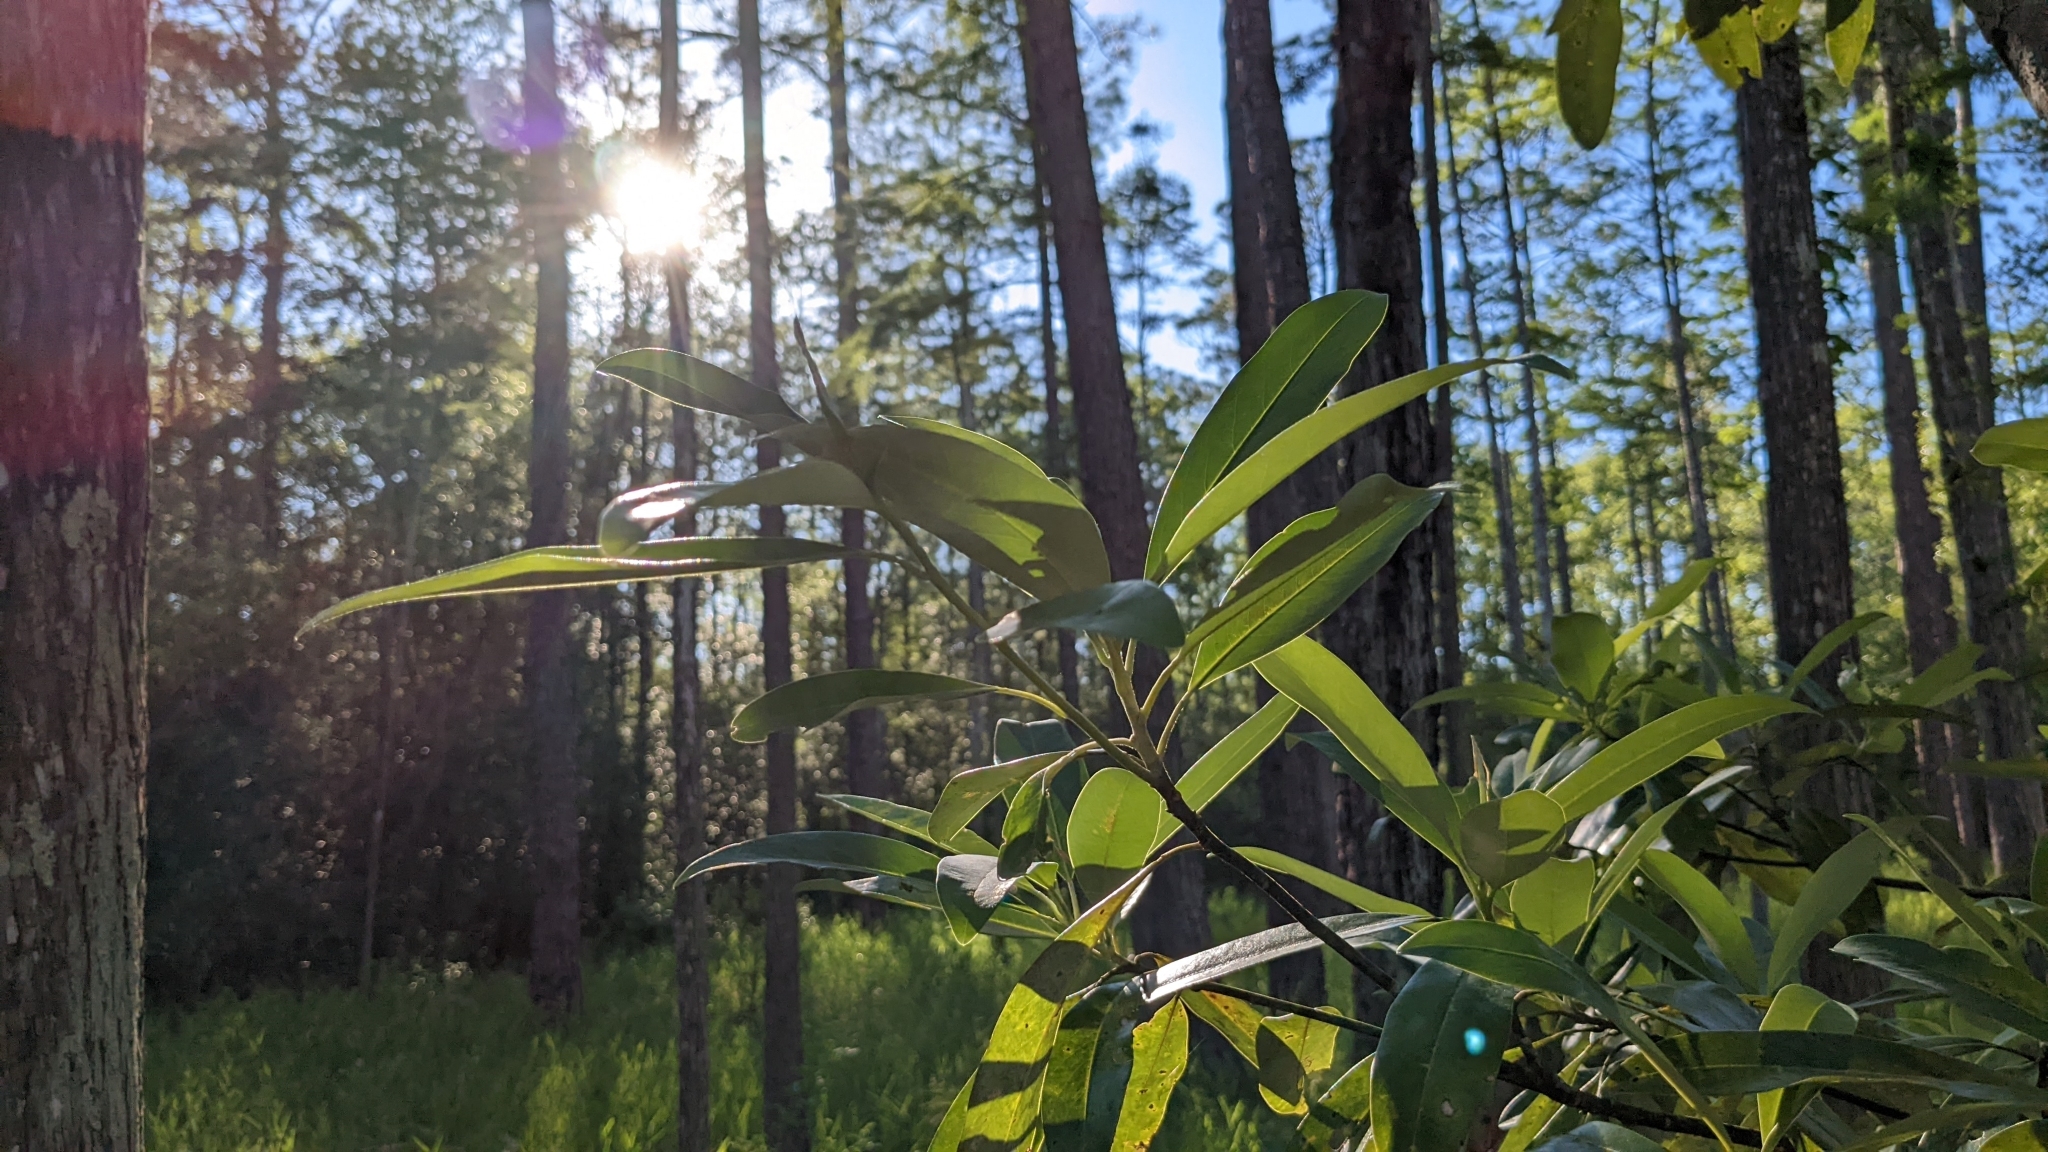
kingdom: Plantae
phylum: Tracheophyta
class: Magnoliopsida
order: Ericales
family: Cyrillaceae
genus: Cyrilla
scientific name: Cyrilla racemiflora
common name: Black titi
